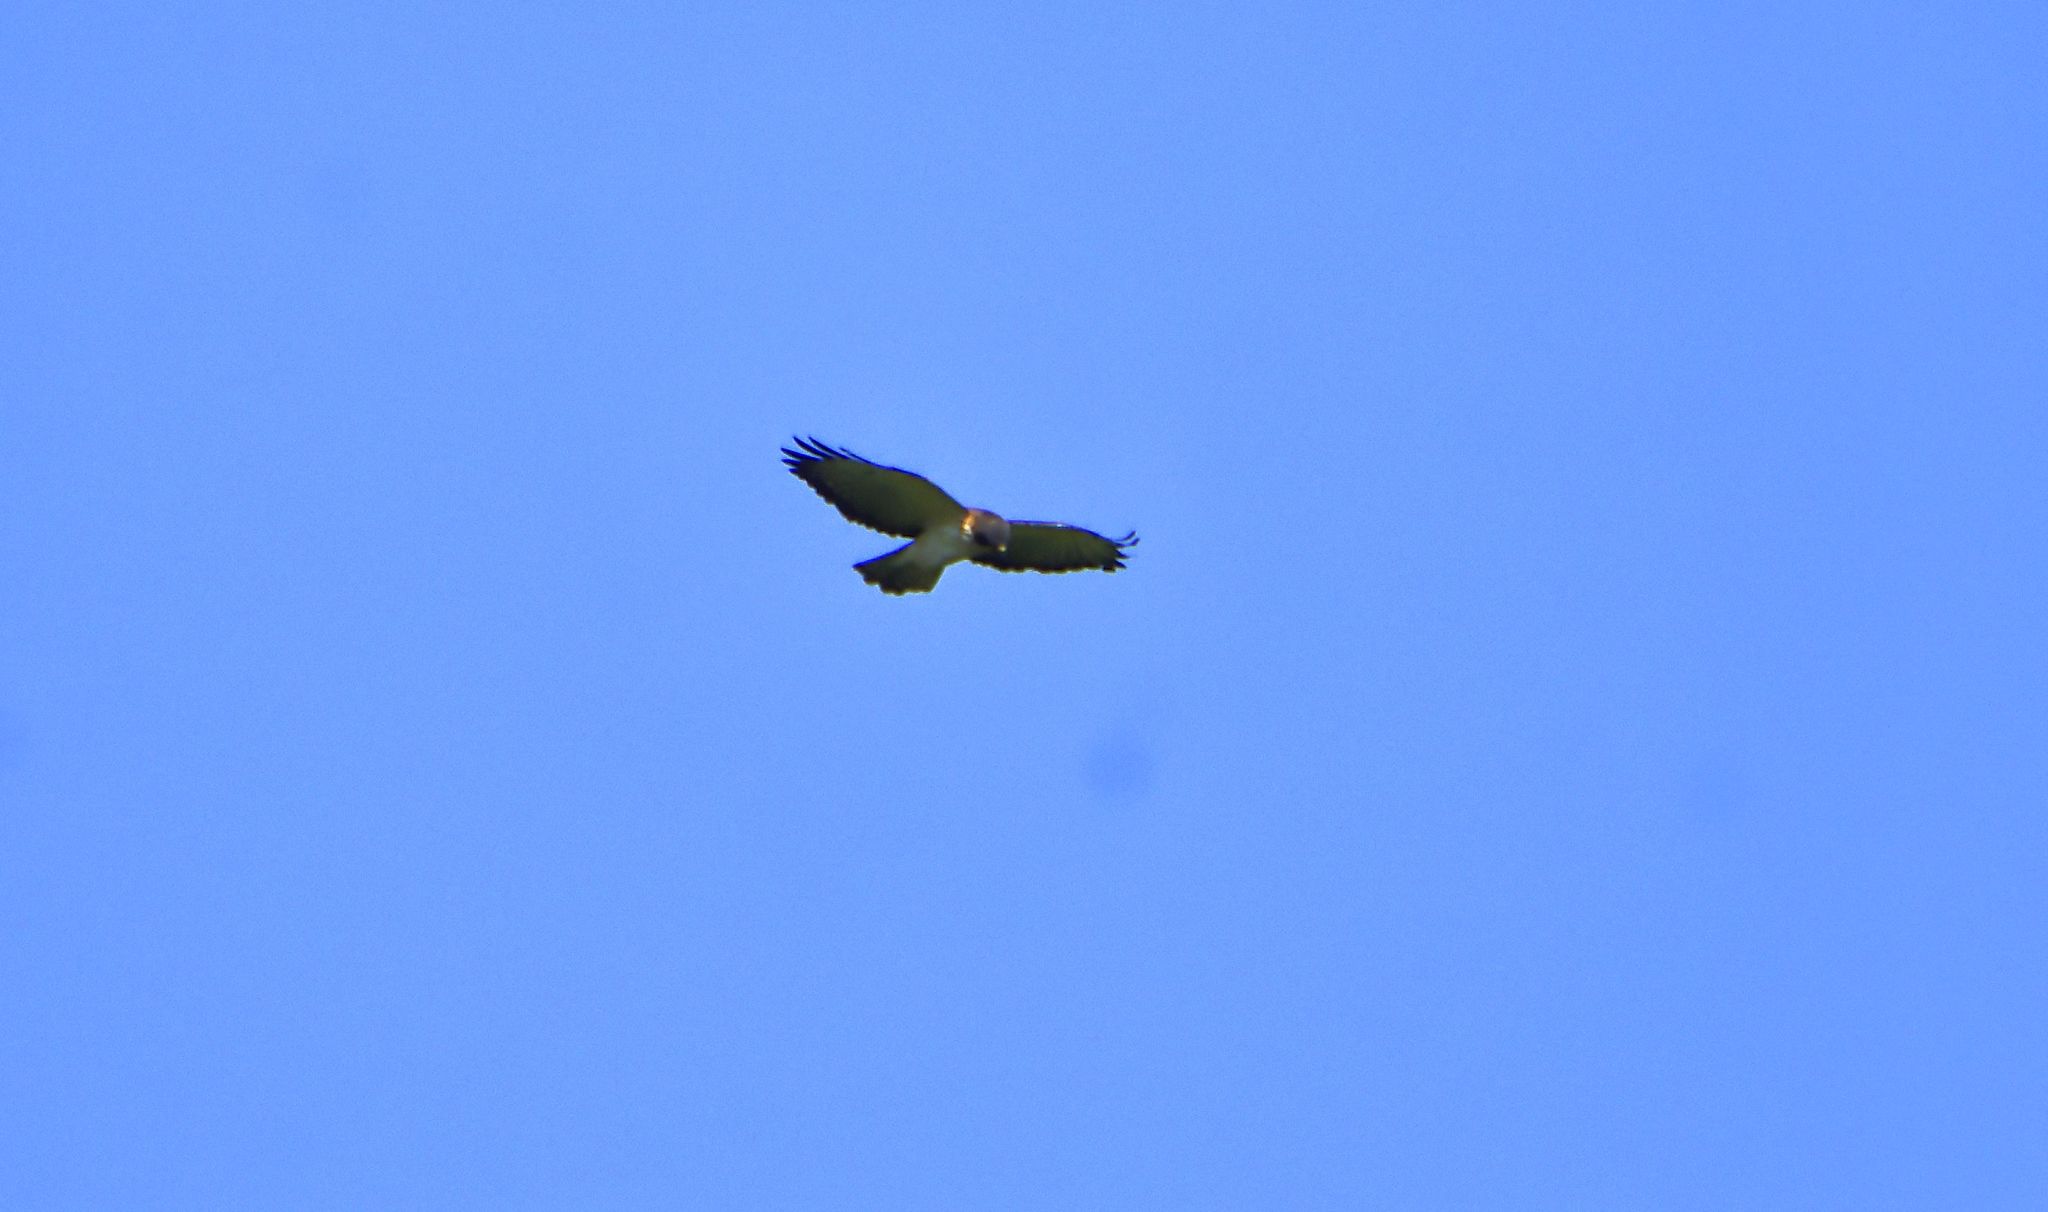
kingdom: Animalia
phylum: Chordata
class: Aves
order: Accipitriformes
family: Accipitridae
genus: Buteo
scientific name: Buteo brachyurus
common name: Short-tailed hawk
